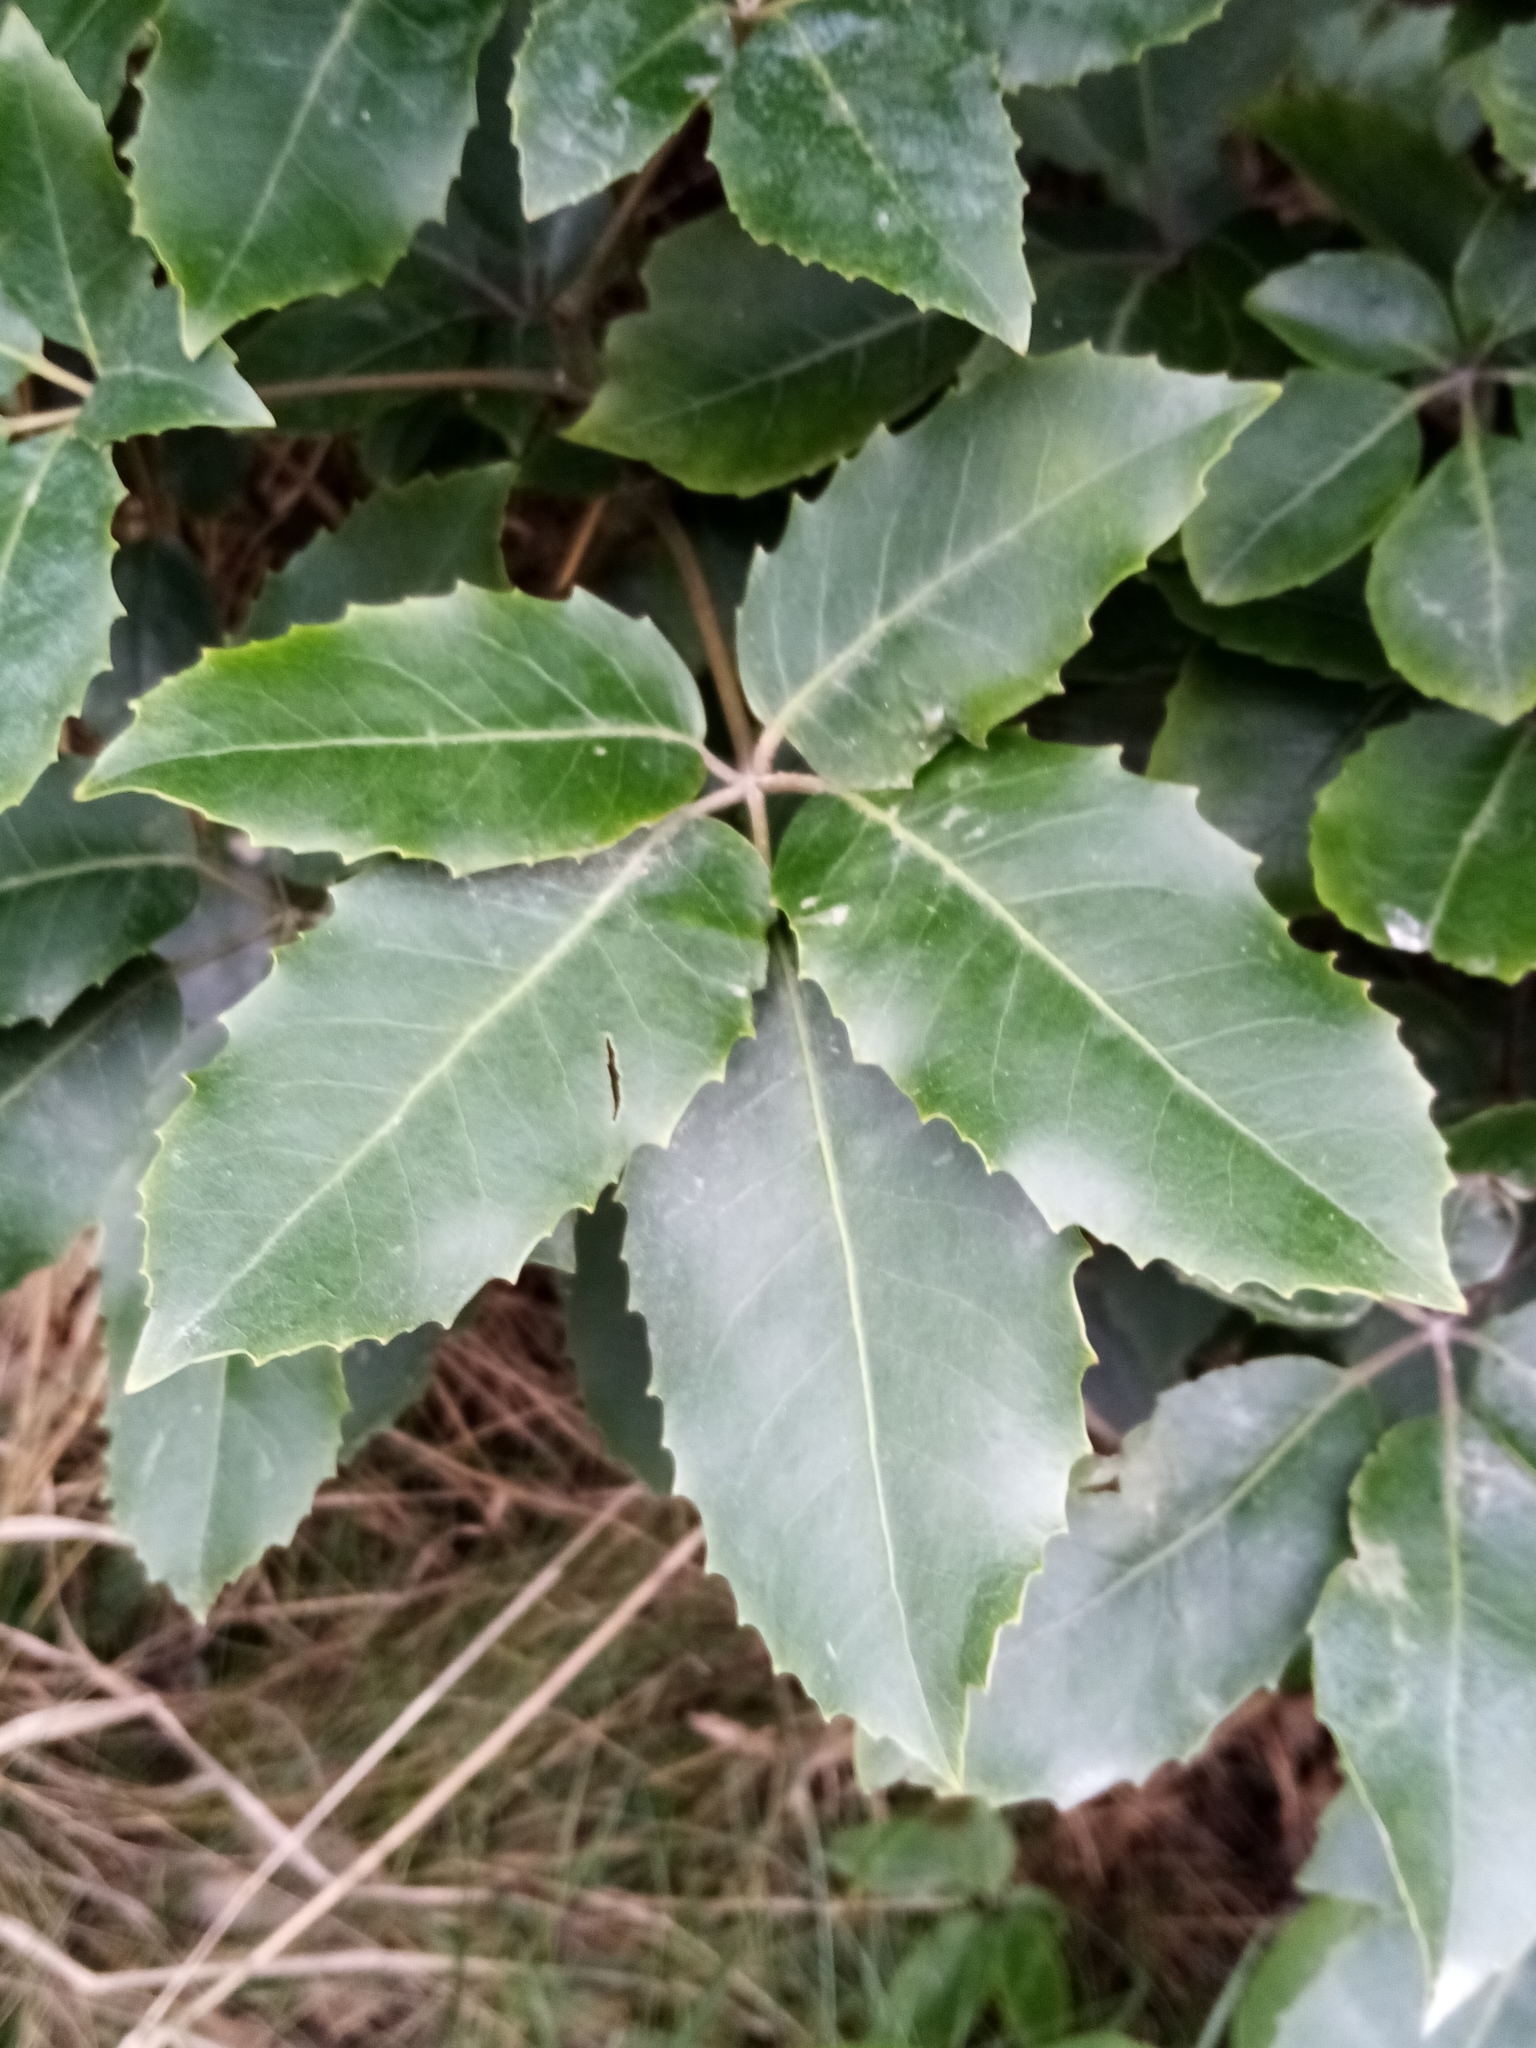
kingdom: Plantae
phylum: Tracheophyta
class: Magnoliopsida
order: Apiales
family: Araliaceae
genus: Neopanax
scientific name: Neopanax arboreus
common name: Five-fingers
